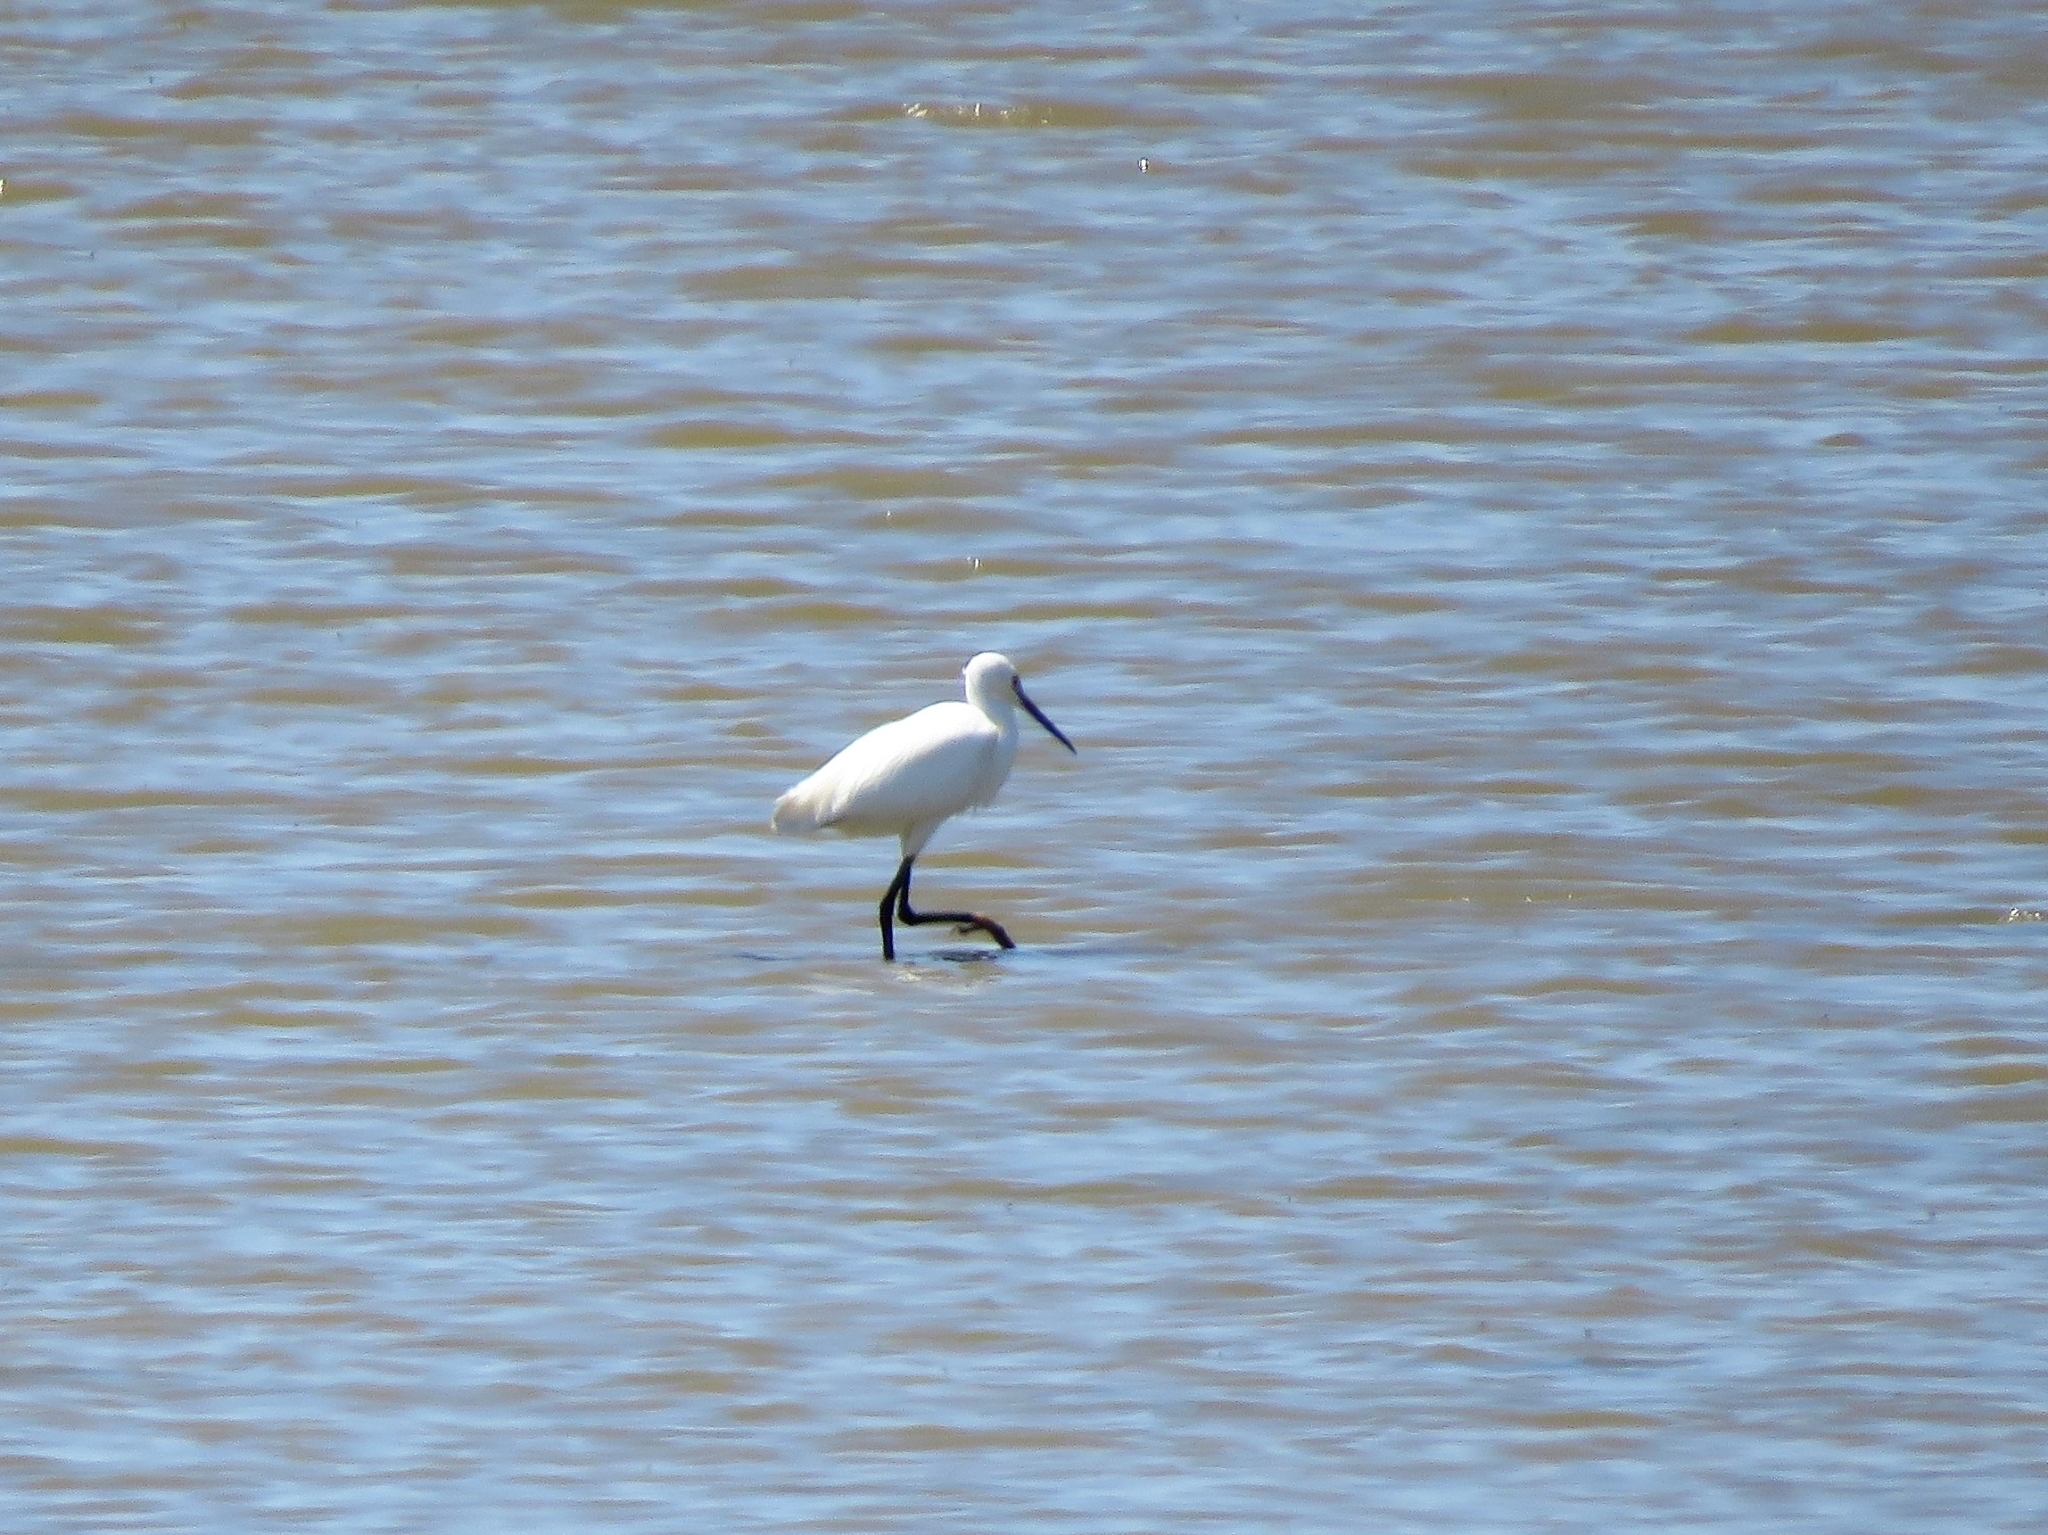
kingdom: Animalia
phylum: Chordata
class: Aves
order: Pelecaniformes
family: Ardeidae
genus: Egretta
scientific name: Egretta garzetta
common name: Little egret
